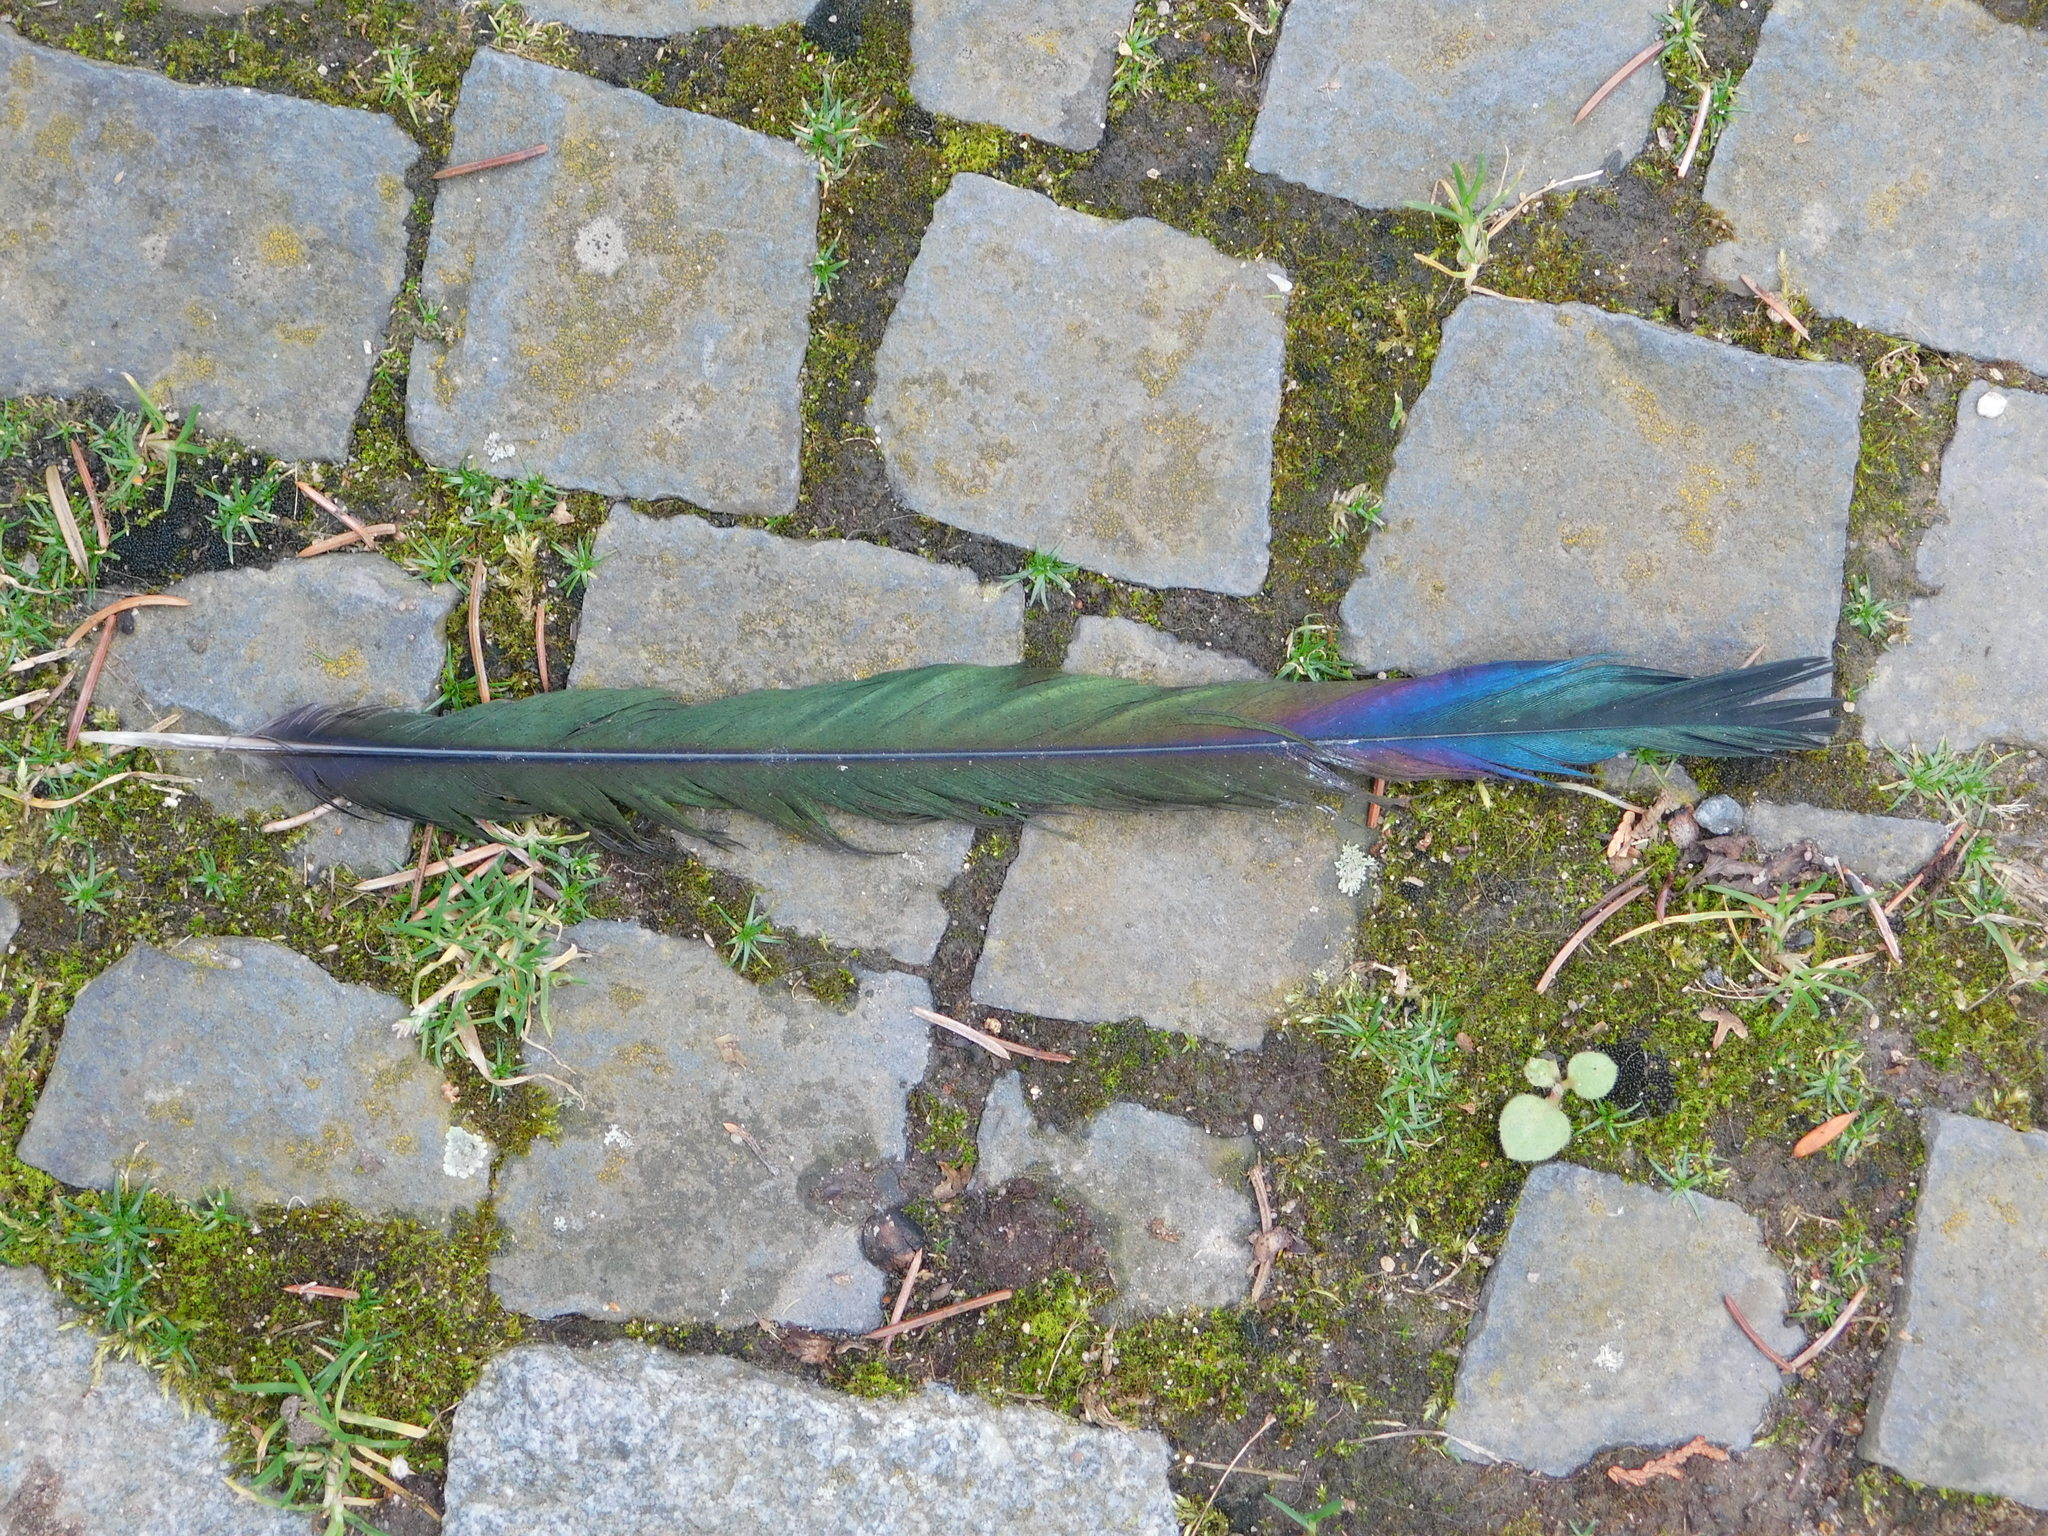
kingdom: Animalia
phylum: Chordata
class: Aves
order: Passeriformes
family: Corvidae
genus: Pica
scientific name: Pica pica
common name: Eurasian magpie
